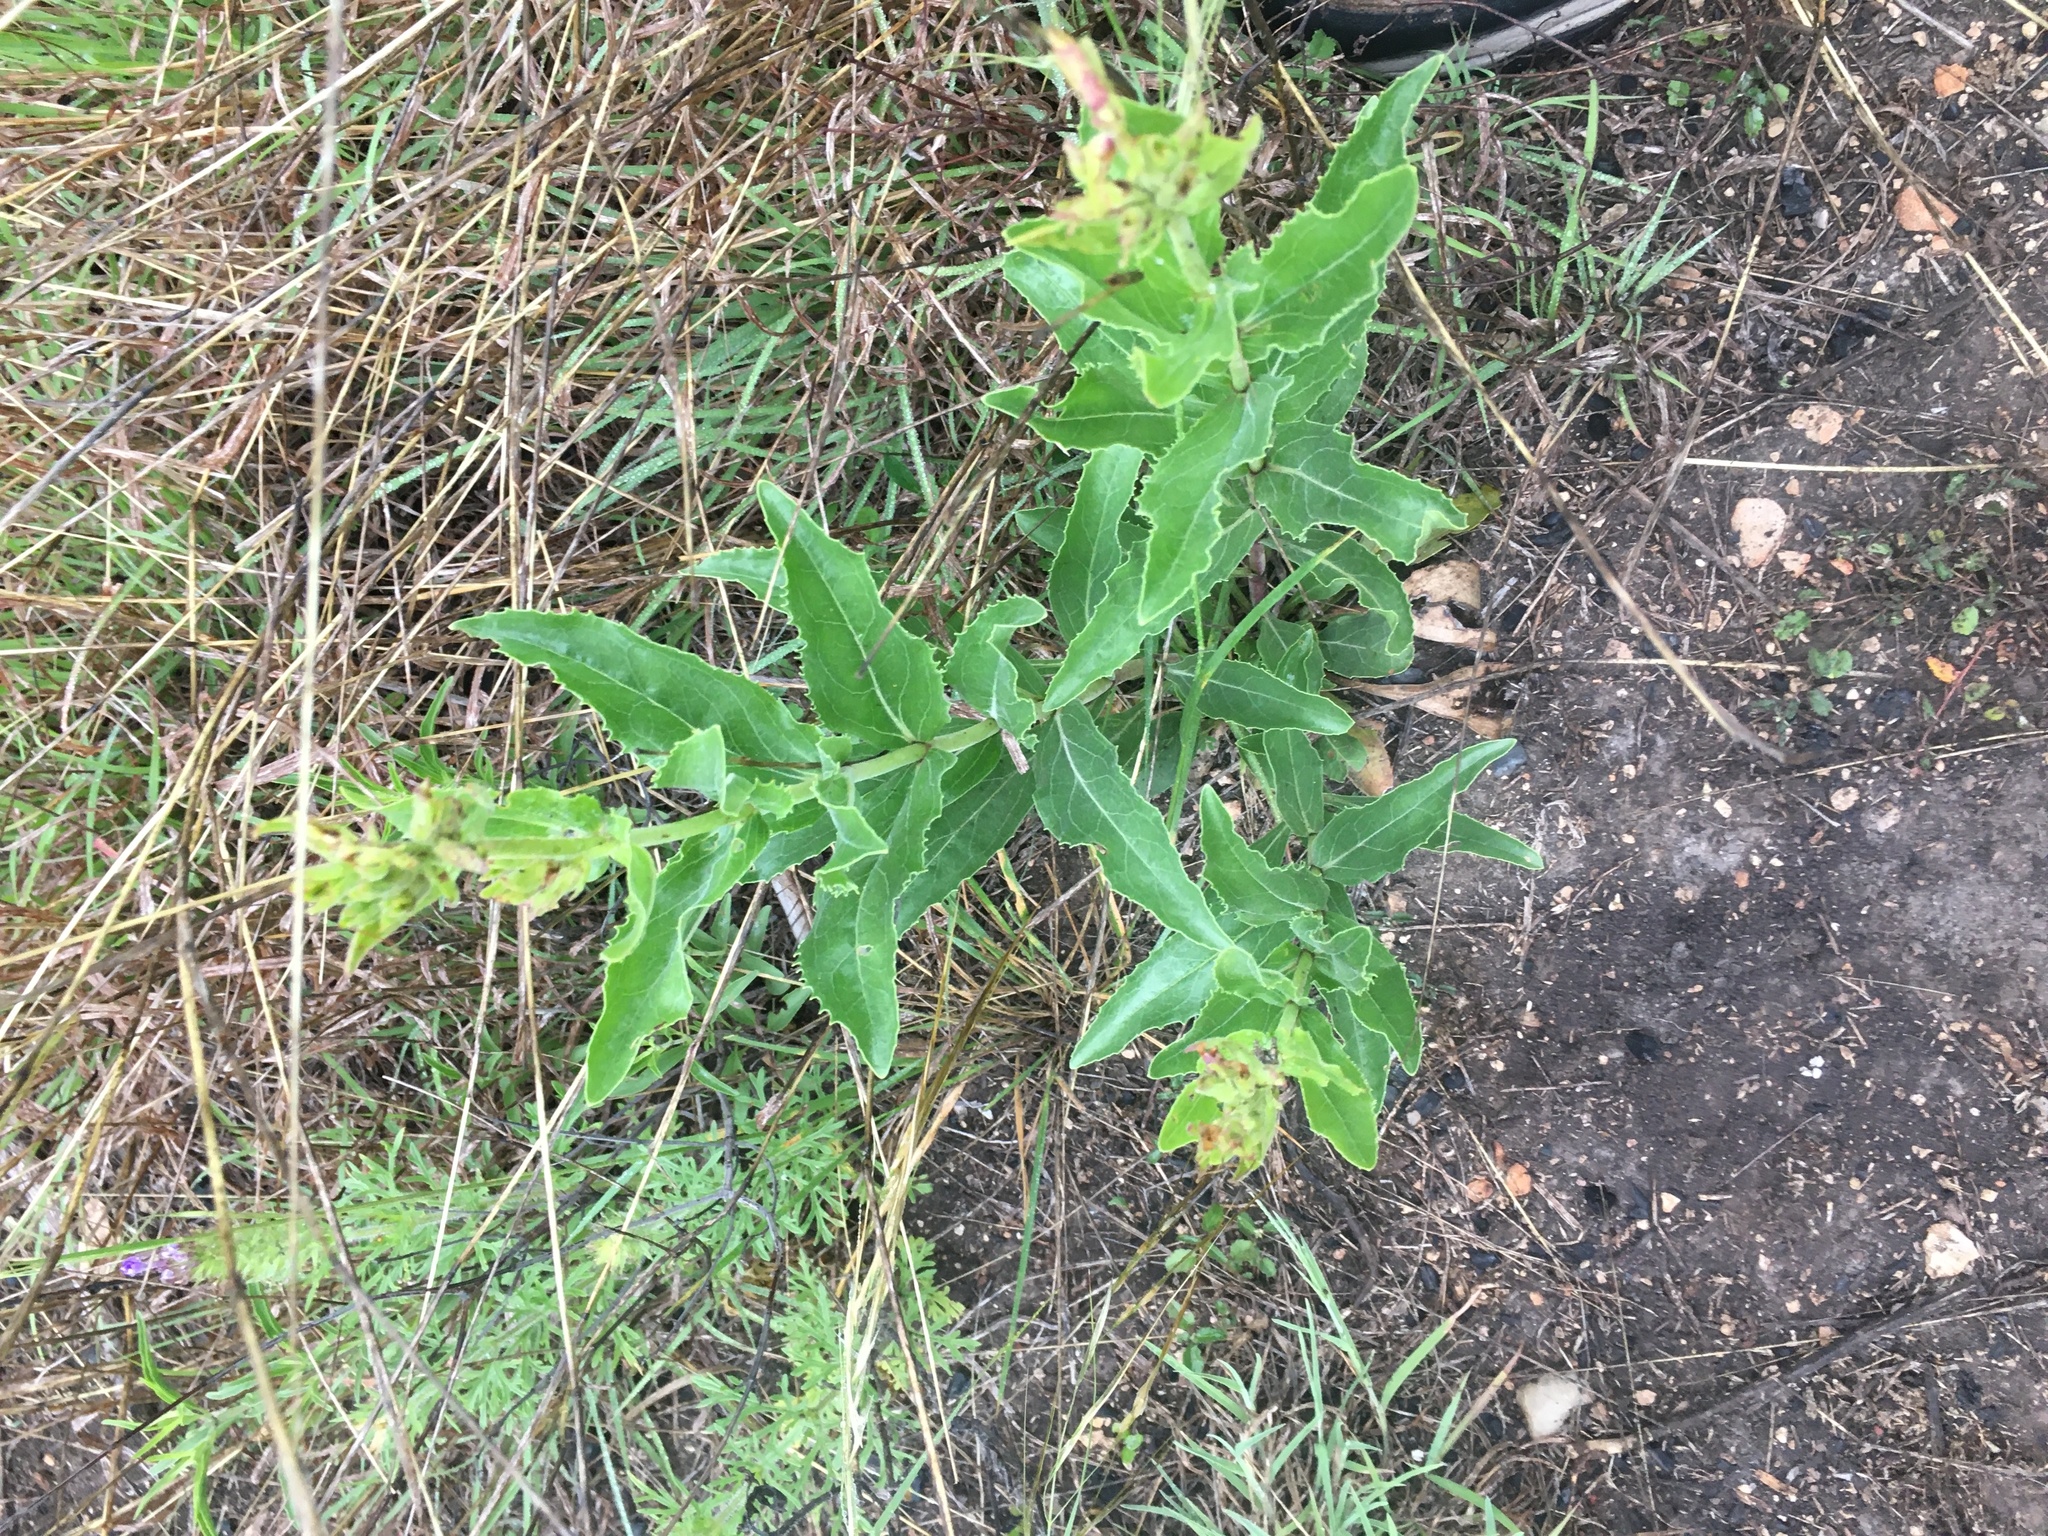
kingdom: Plantae
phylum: Tracheophyta
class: Magnoliopsida
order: Lamiales
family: Plantaginaceae
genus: Penstemon
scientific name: Penstemon cobaea
